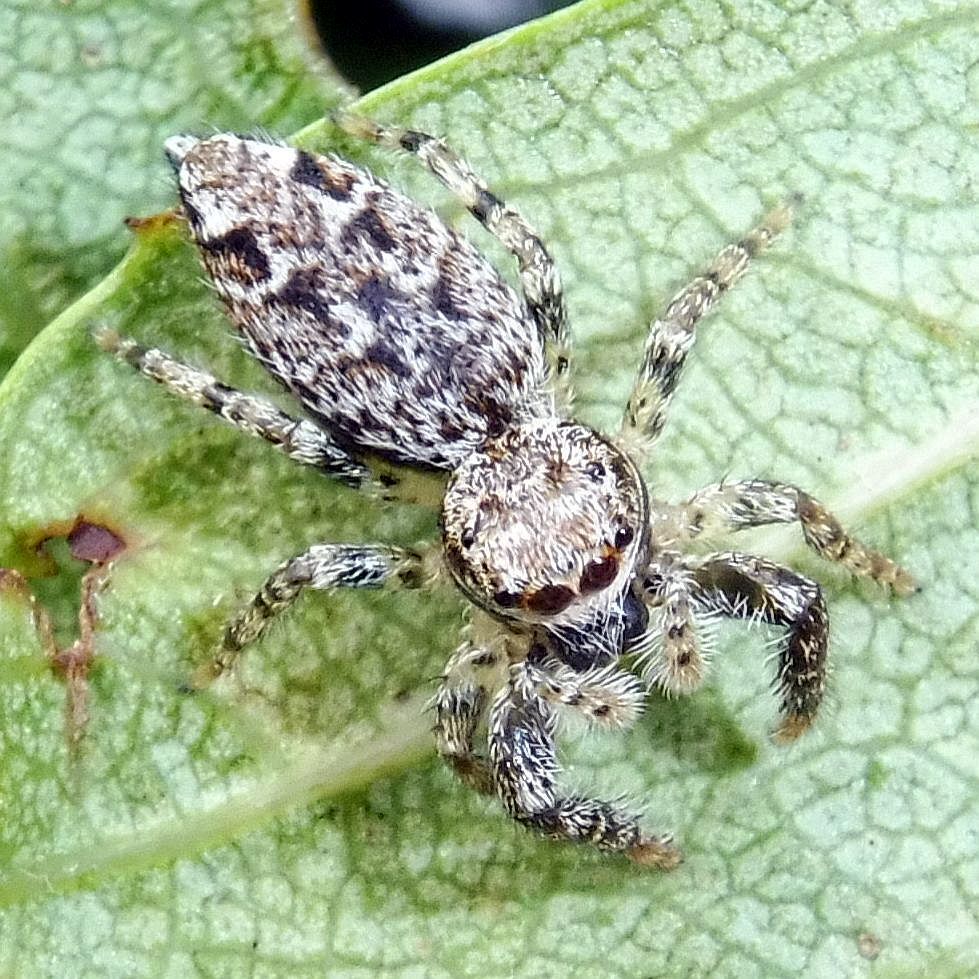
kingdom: Animalia
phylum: Arthropoda
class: Arachnida
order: Araneae
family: Salticidae
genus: Marpissa
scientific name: Marpissa muscosa
